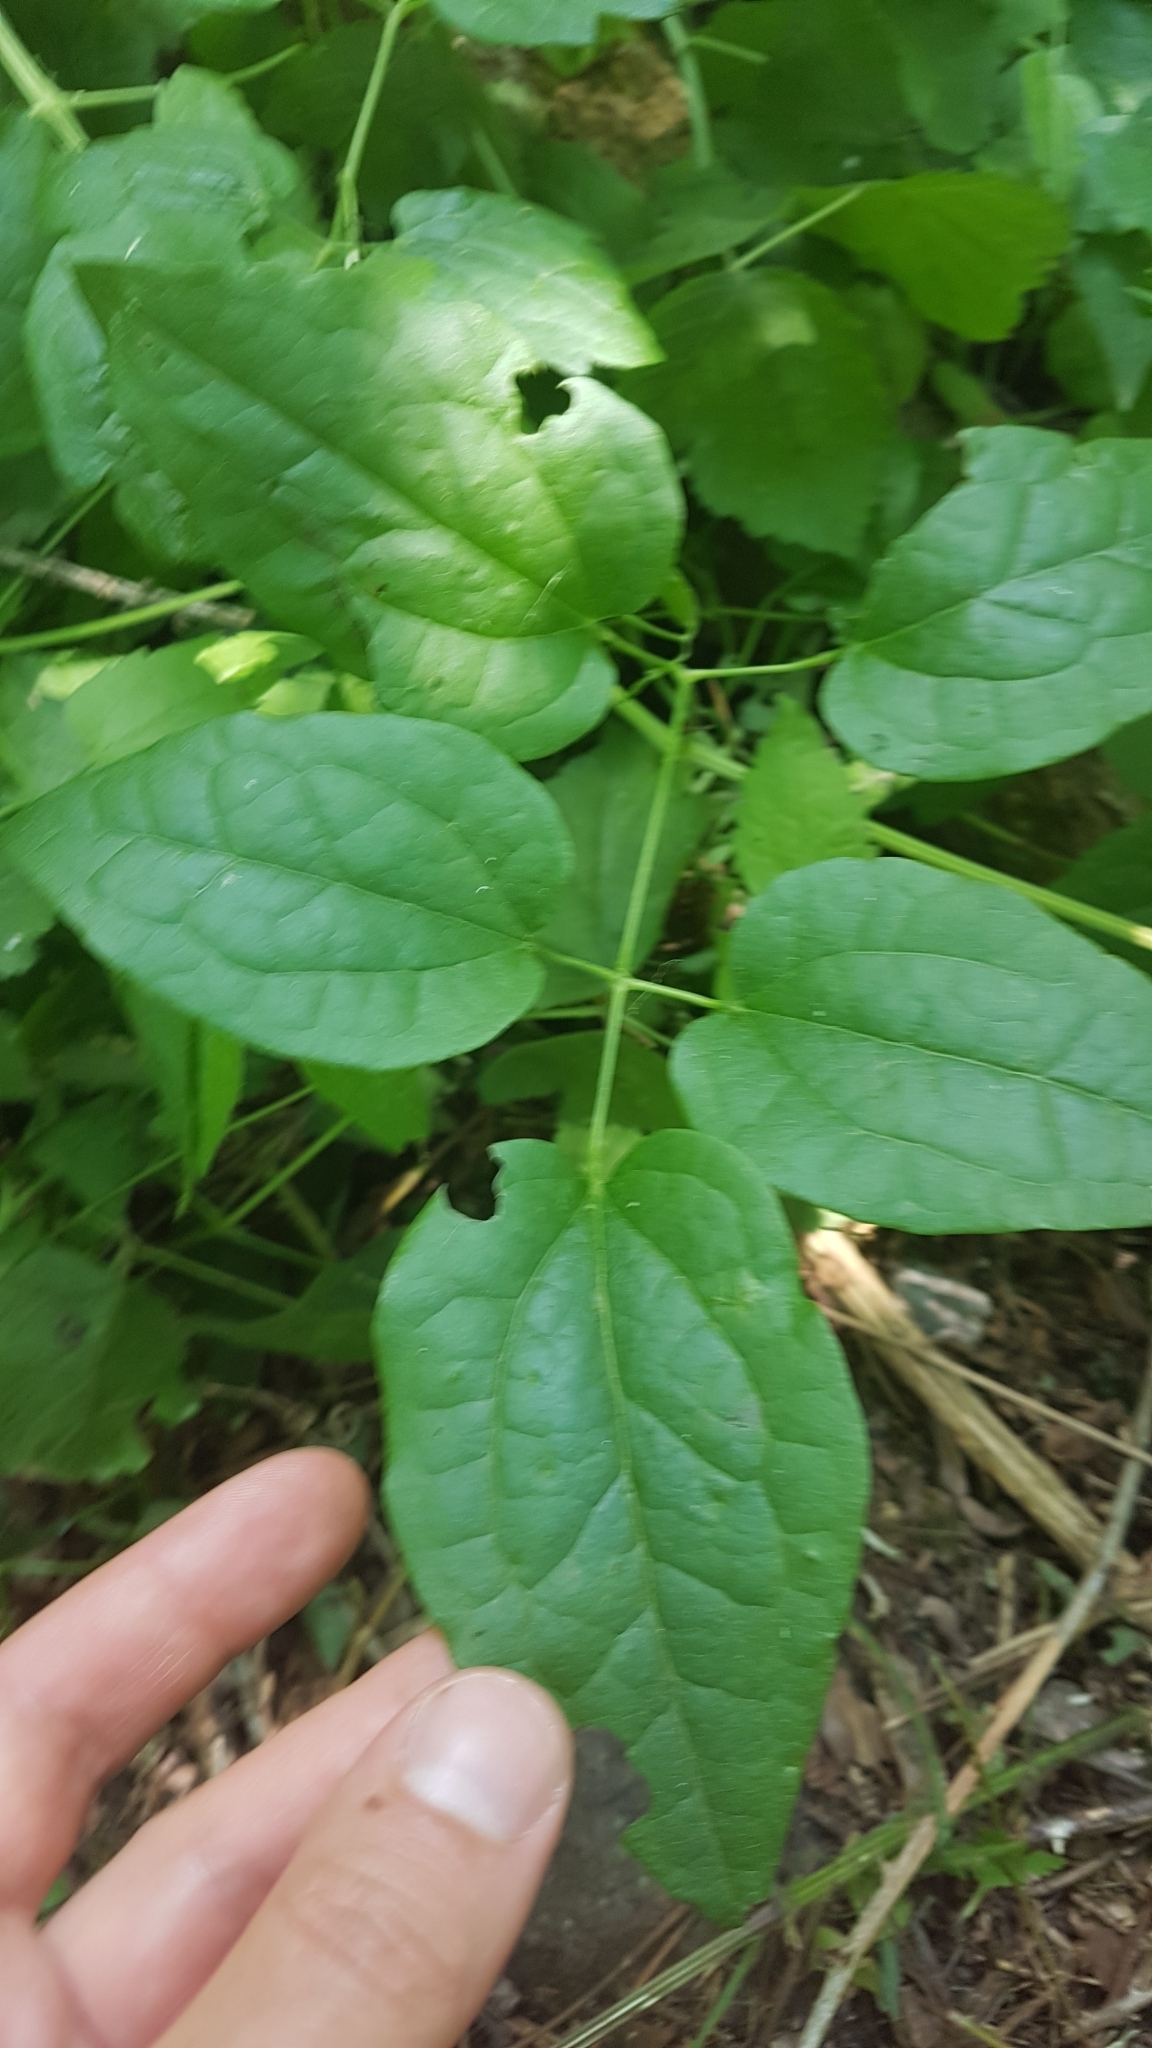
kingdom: Plantae
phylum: Tracheophyta
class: Magnoliopsida
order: Ranunculales
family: Ranunculaceae
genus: Clematis
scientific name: Clematis vitalba
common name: Evergreen clematis
